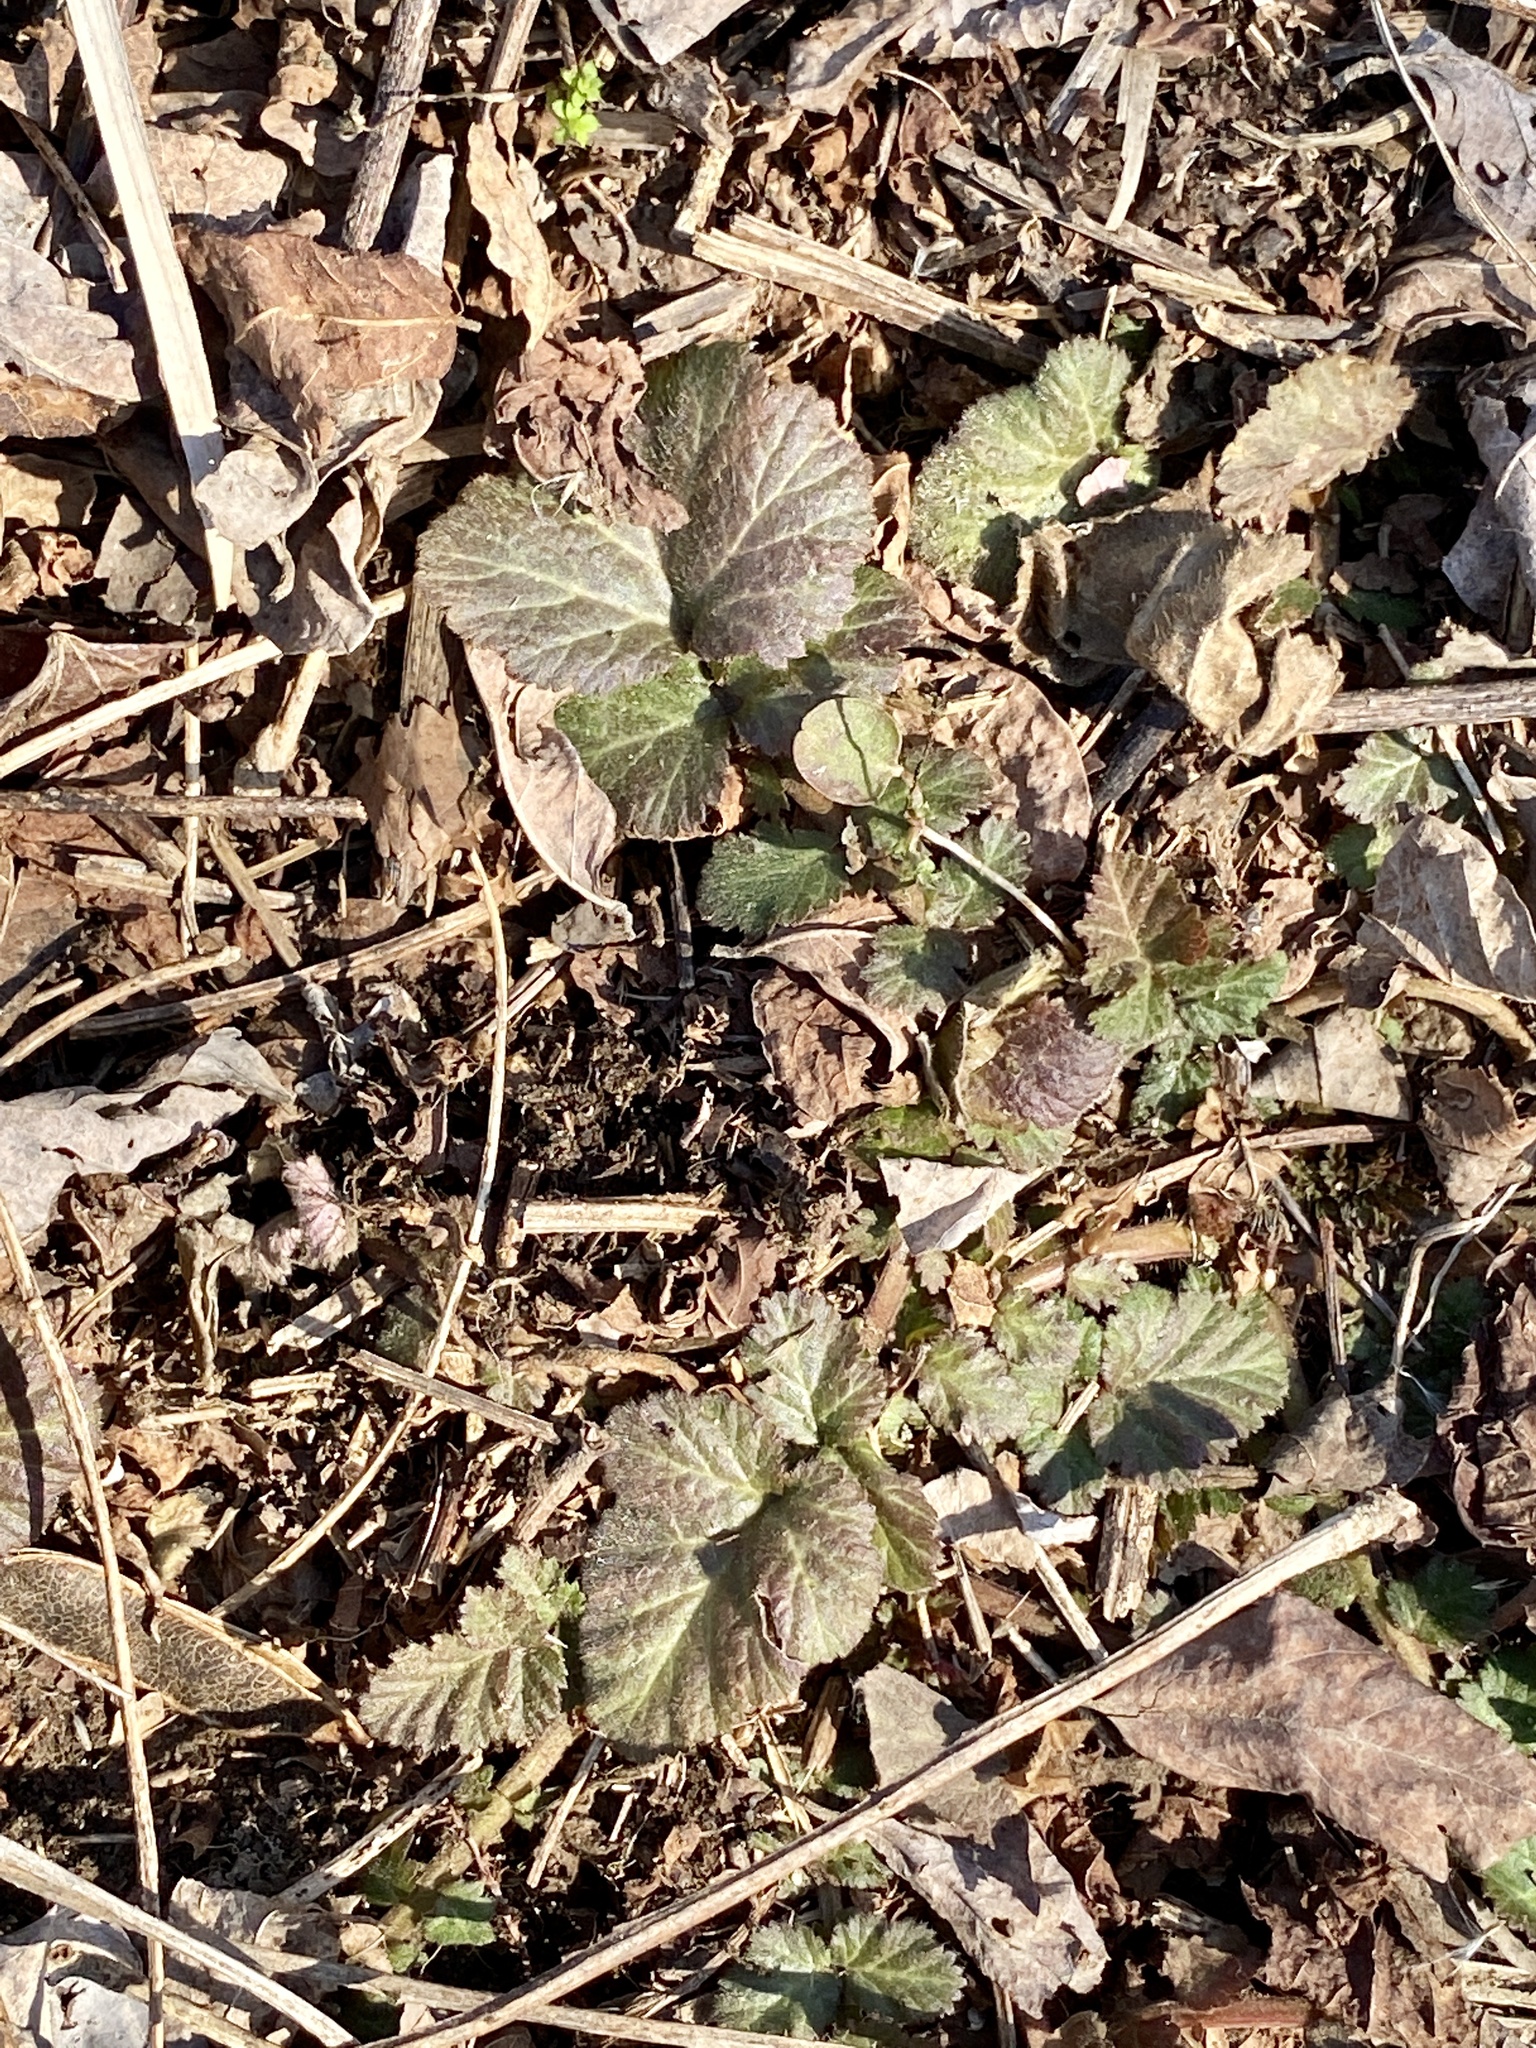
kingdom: Plantae
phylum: Tracheophyta
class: Magnoliopsida
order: Rosales
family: Rosaceae
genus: Geum
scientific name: Geum
